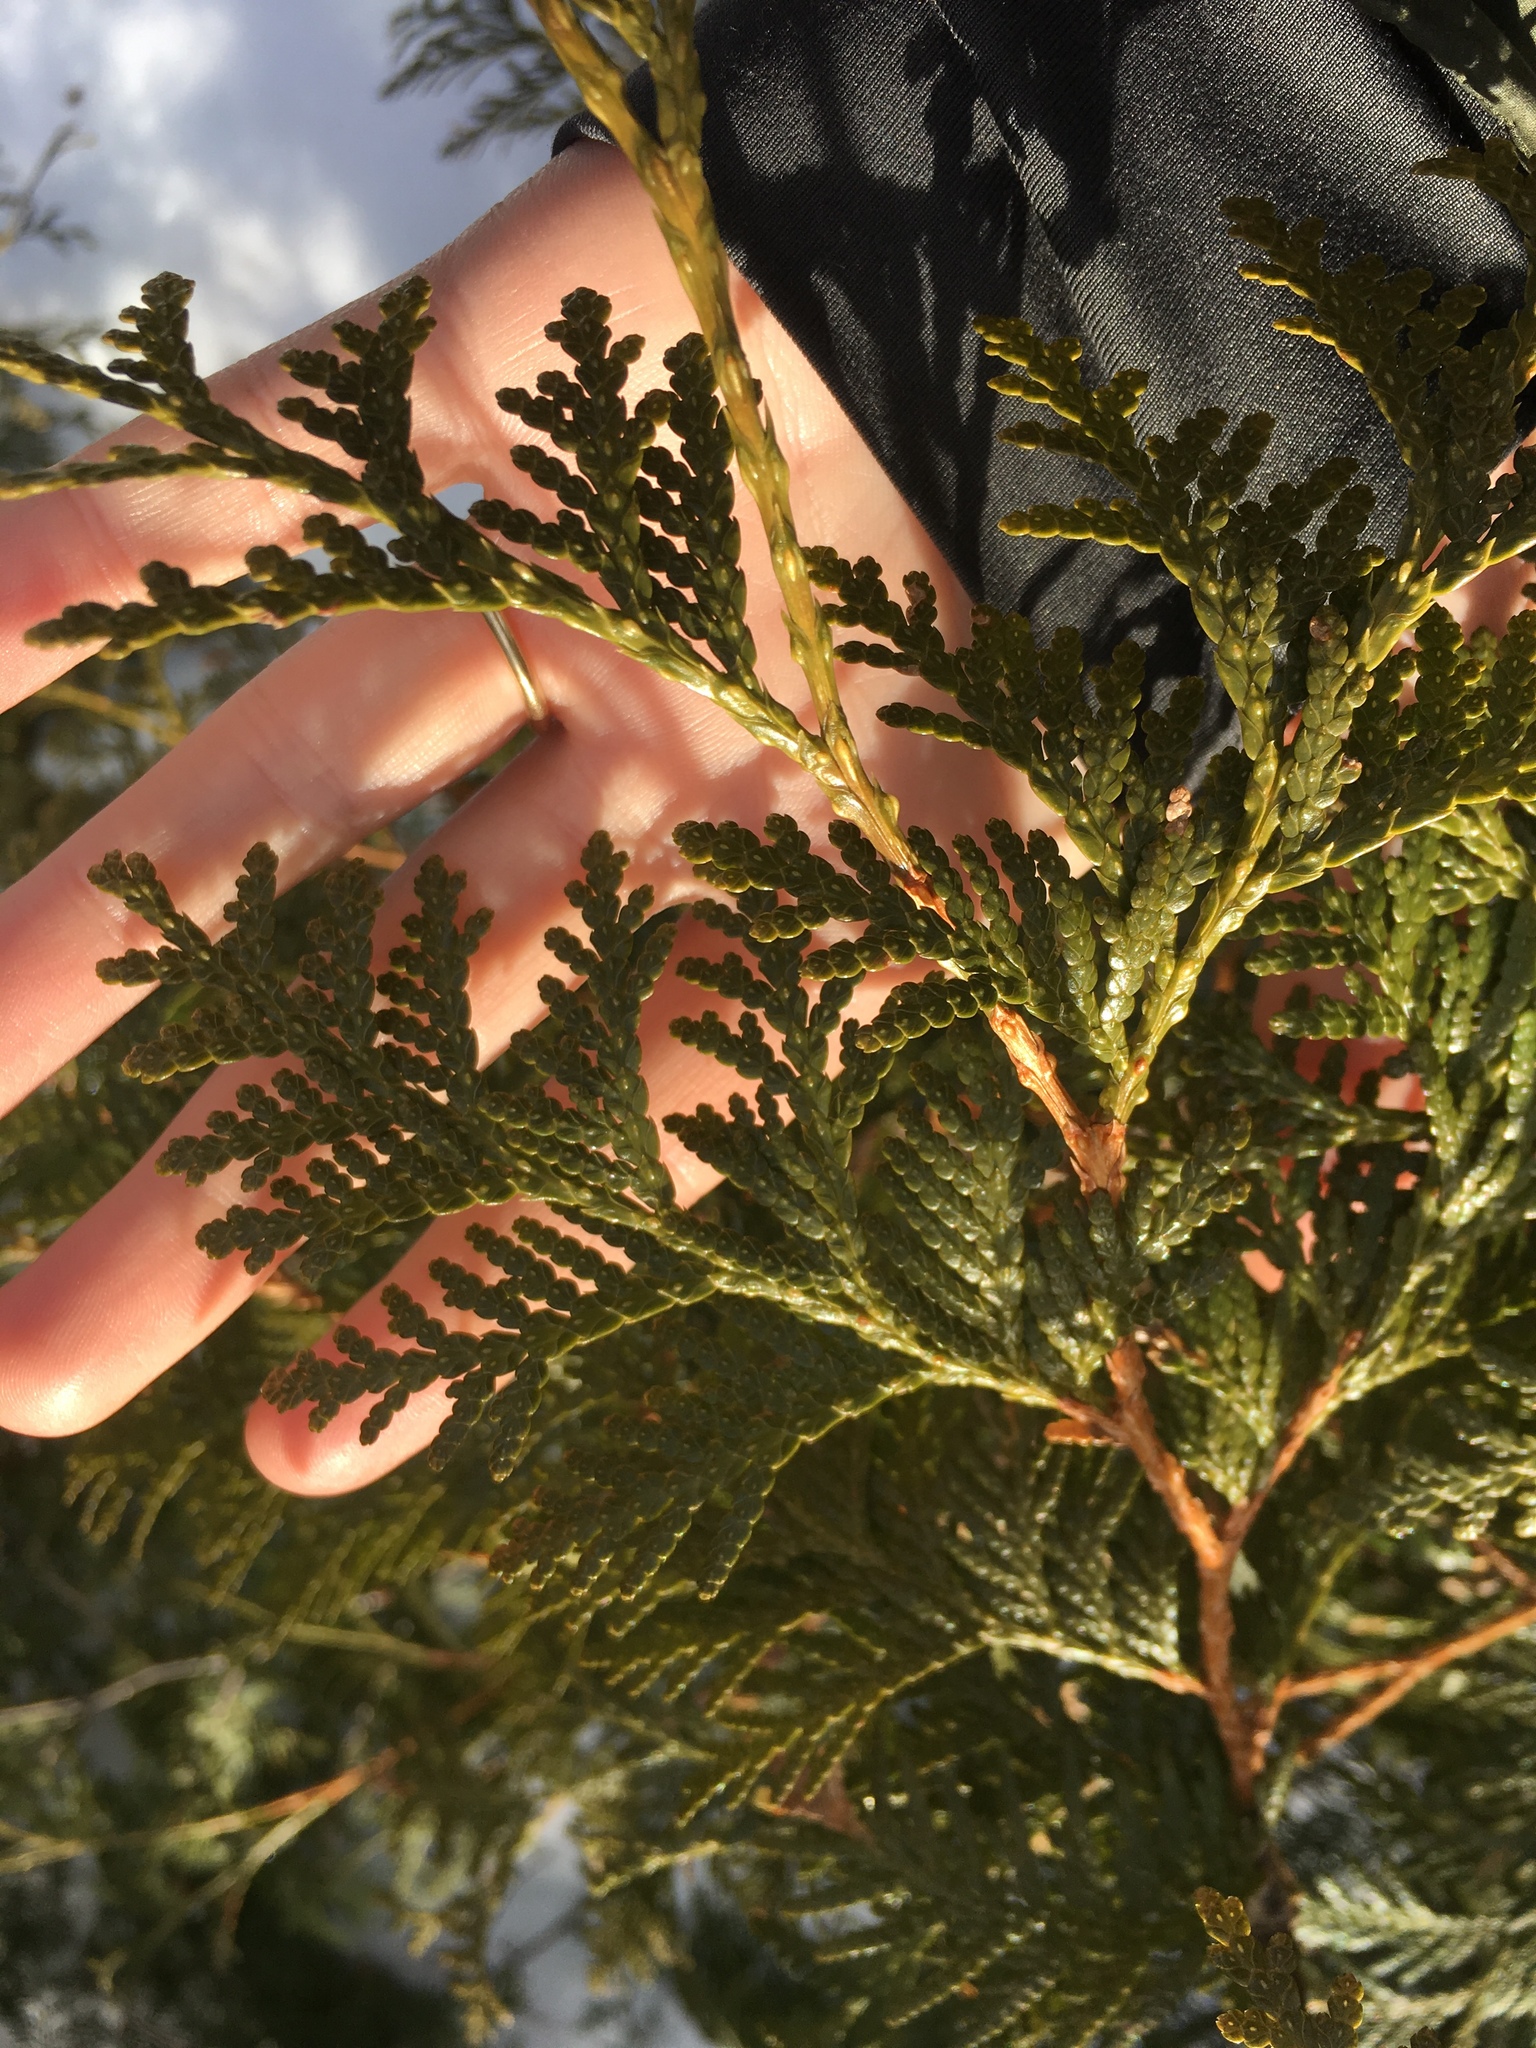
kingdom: Plantae
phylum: Tracheophyta
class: Pinopsida
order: Pinales
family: Cupressaceae
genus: Thuja
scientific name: Thuja occidentalis
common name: Northern white-cedar
